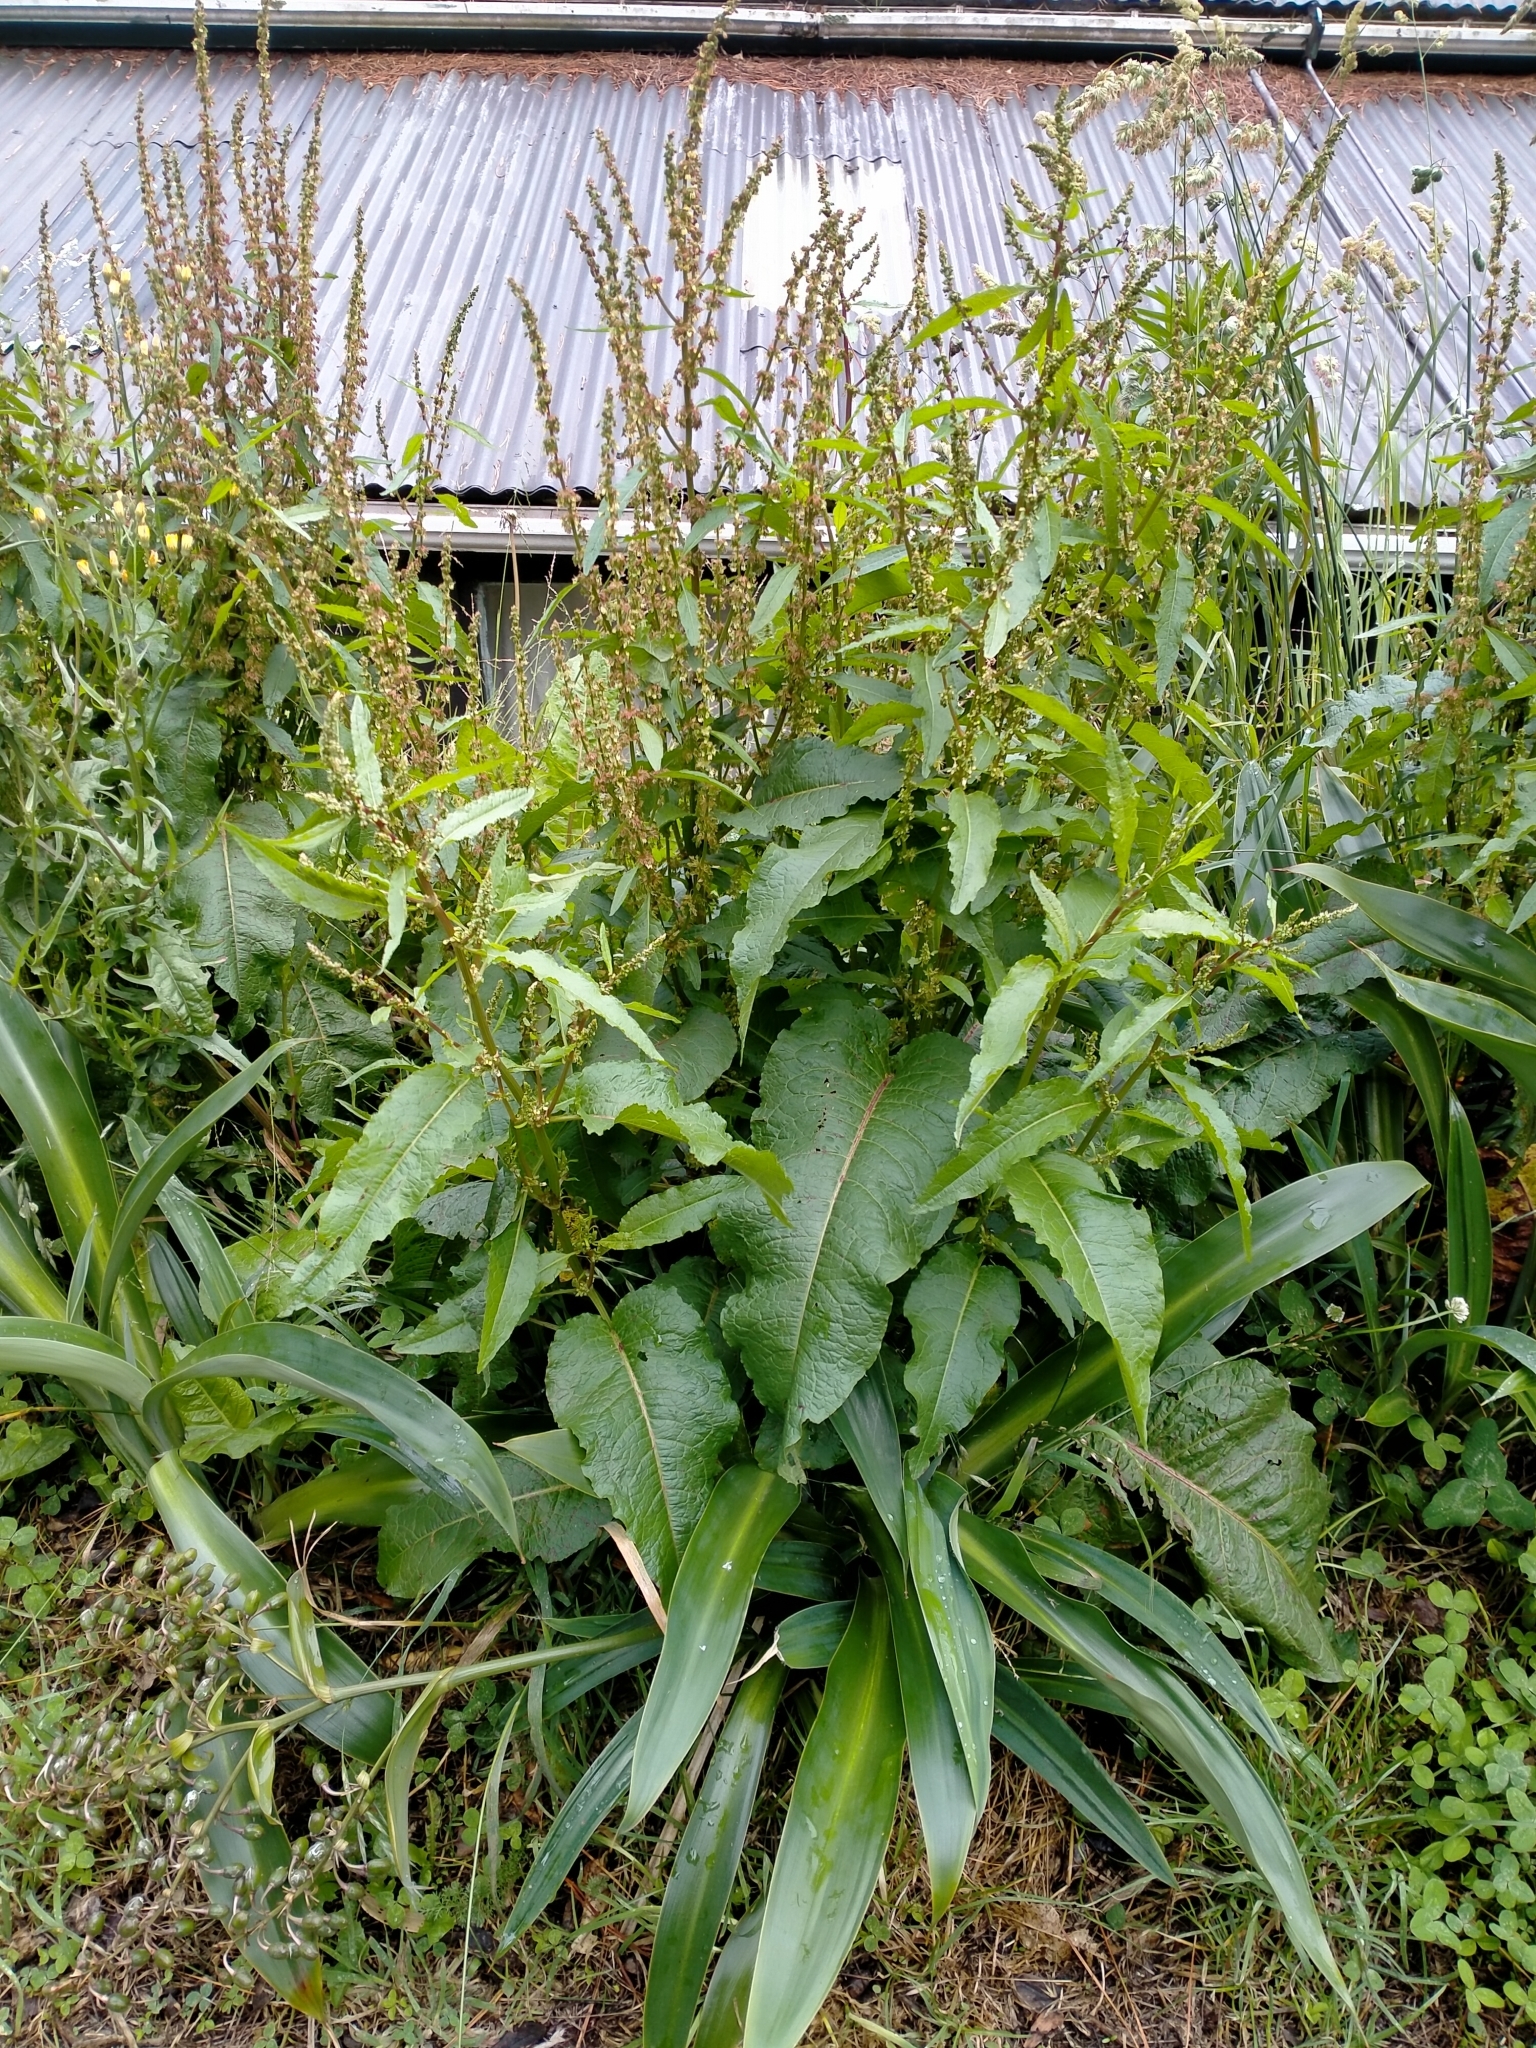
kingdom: Plantae
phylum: Tracheophyta
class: Magnoliopsida
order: Caryophyllales
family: Polygonaceae
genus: Rumex
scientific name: Rumex obtusifolius
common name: Bitter dock
